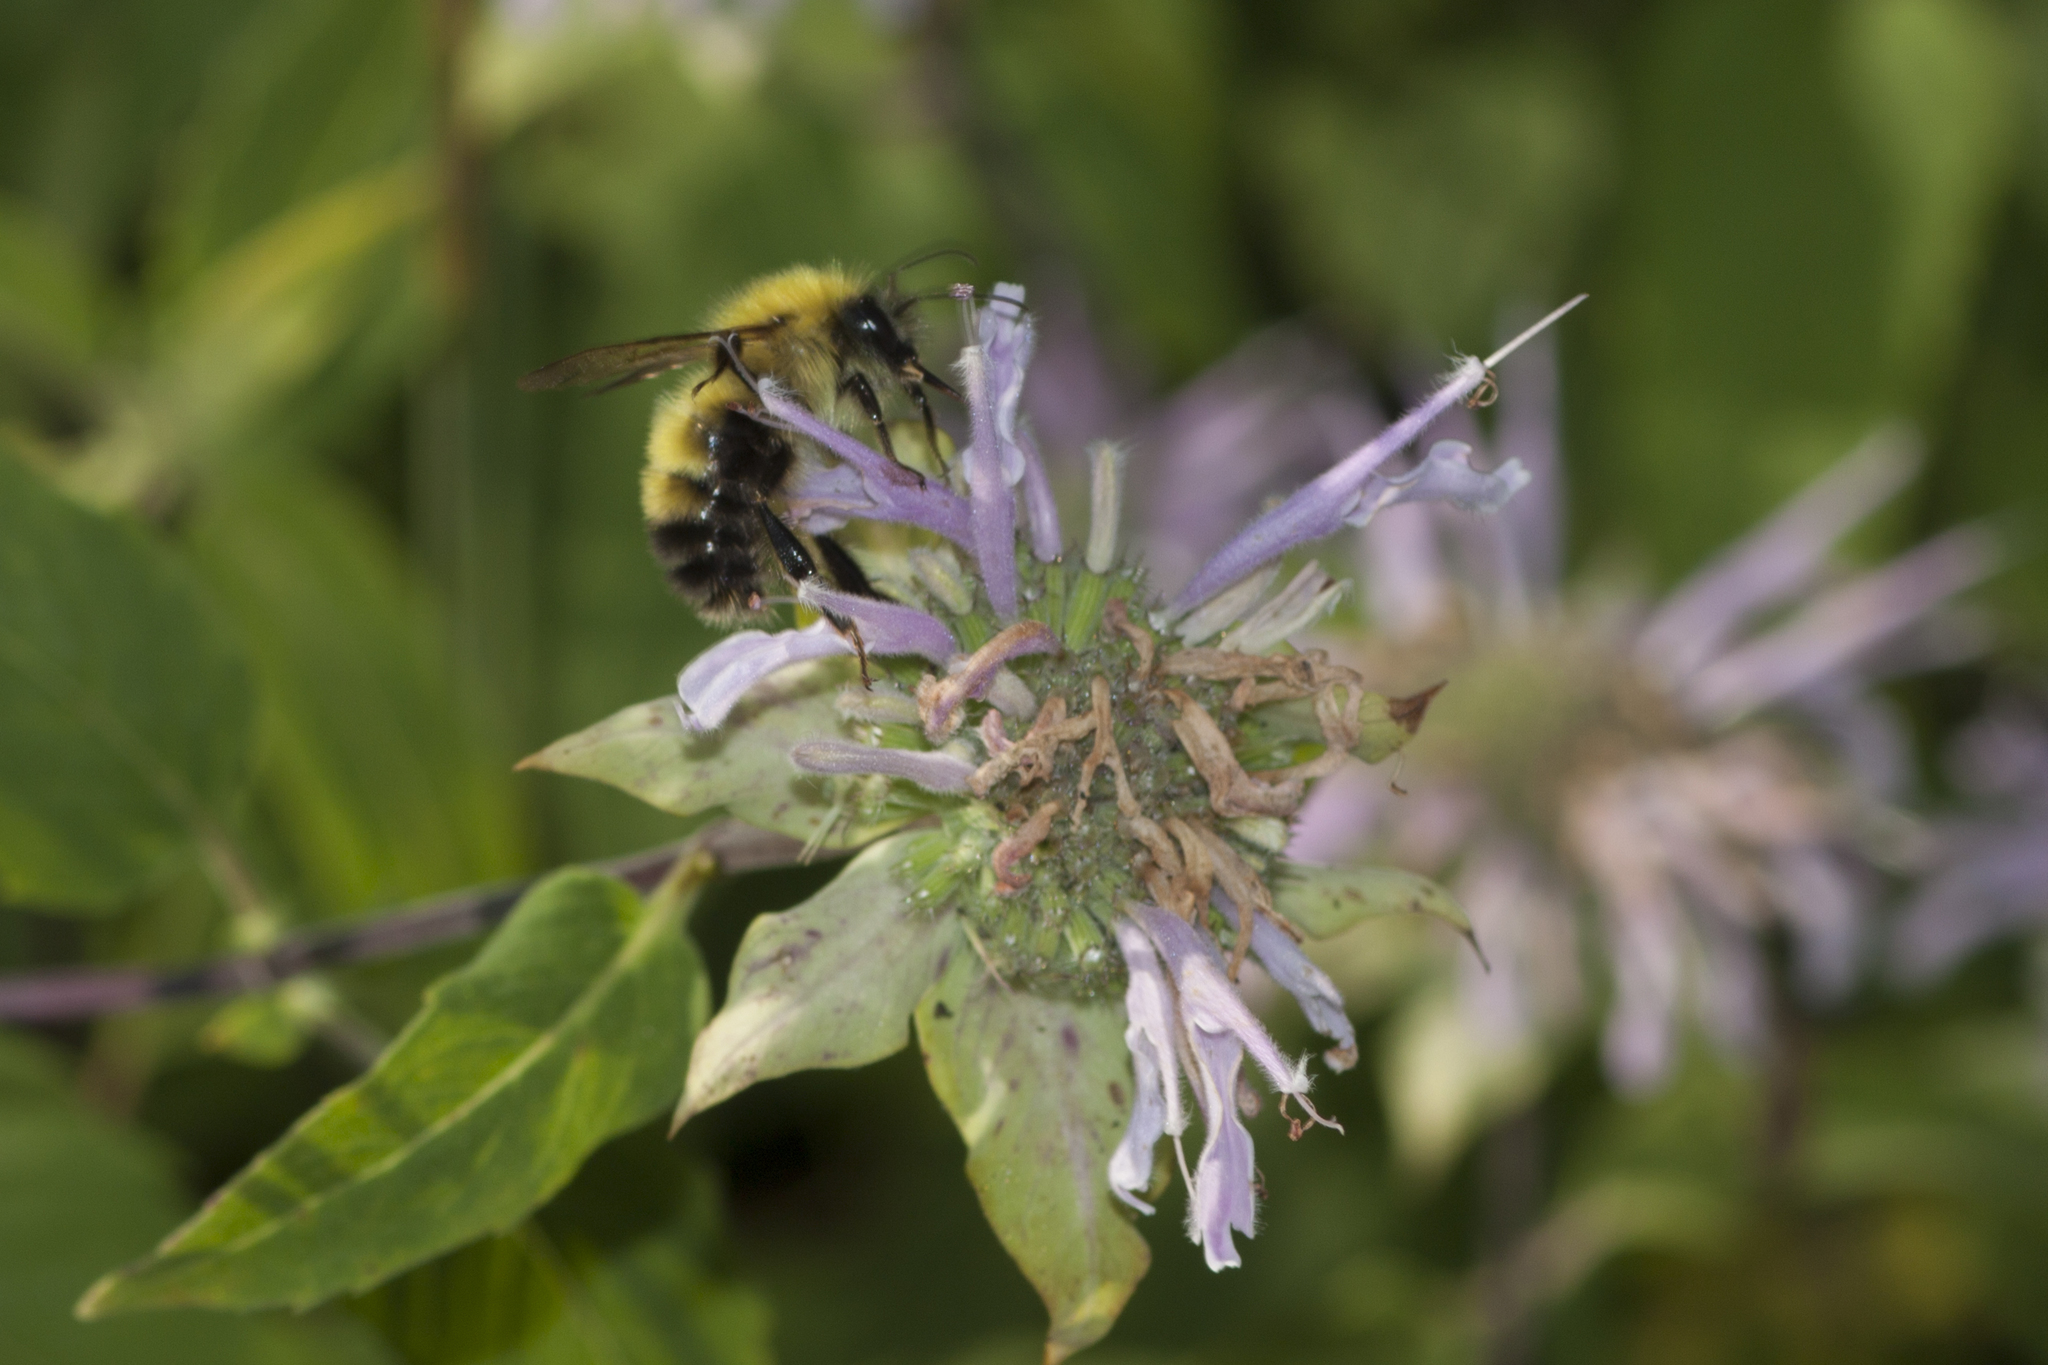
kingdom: Animalia
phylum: Arthropoda
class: Insecta
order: Hymenoptera
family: Apidae
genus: Bombus
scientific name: Bombus perplexus
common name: Confusing bumble bee
